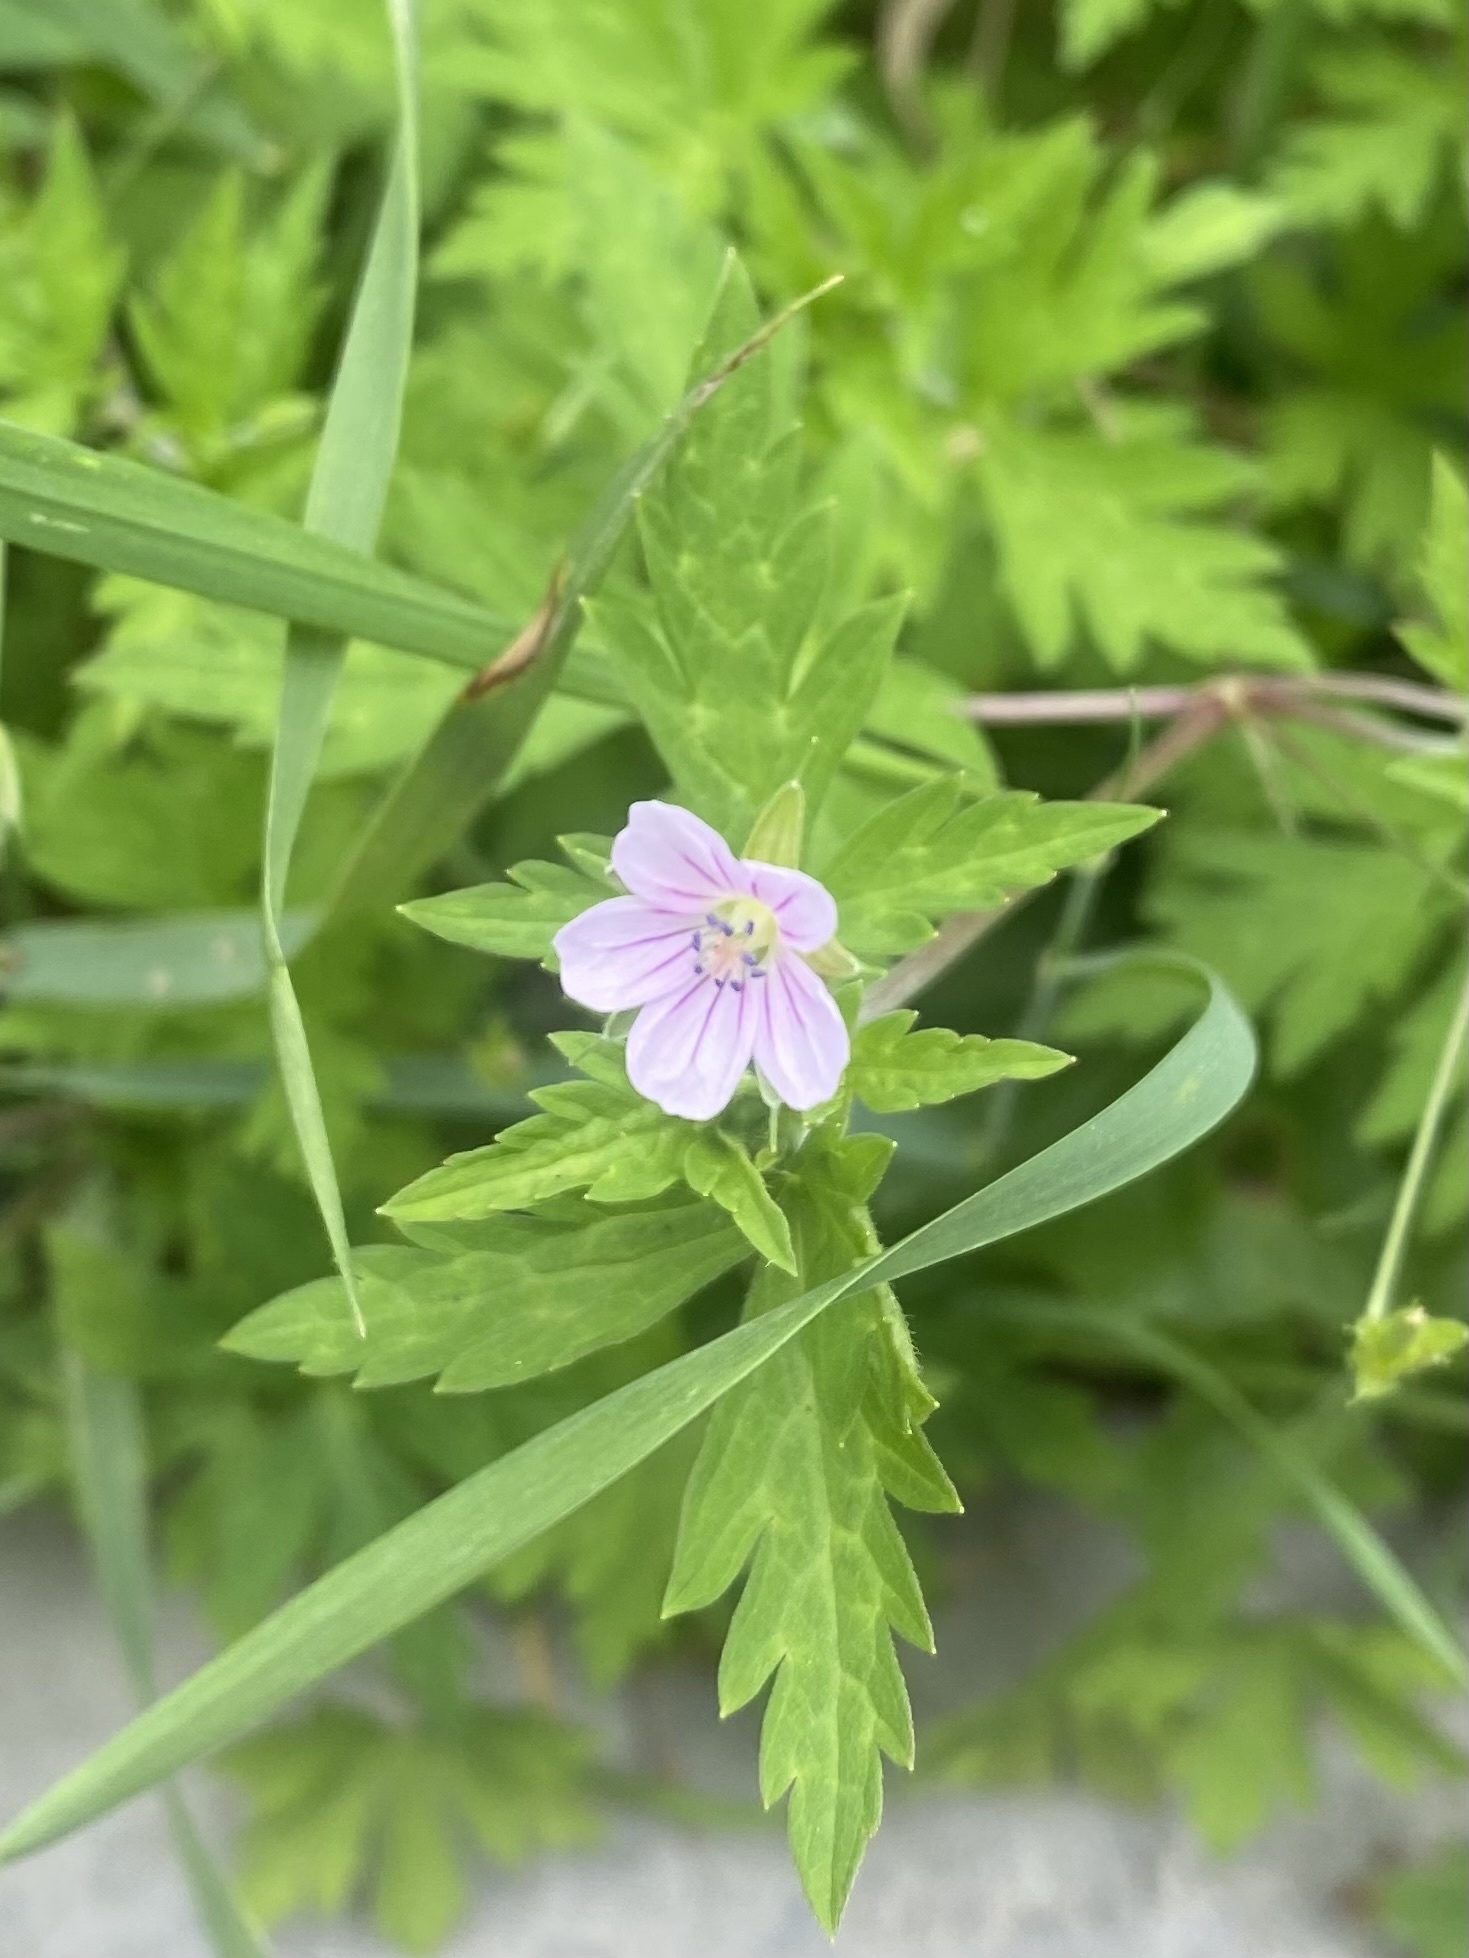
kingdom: Plantae
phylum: Tracheophyta
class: Magnoliopsida
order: Geraniales
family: Geraniaceae
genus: Geranium
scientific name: Geranium sibiricum
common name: Siberian crane's-bill
